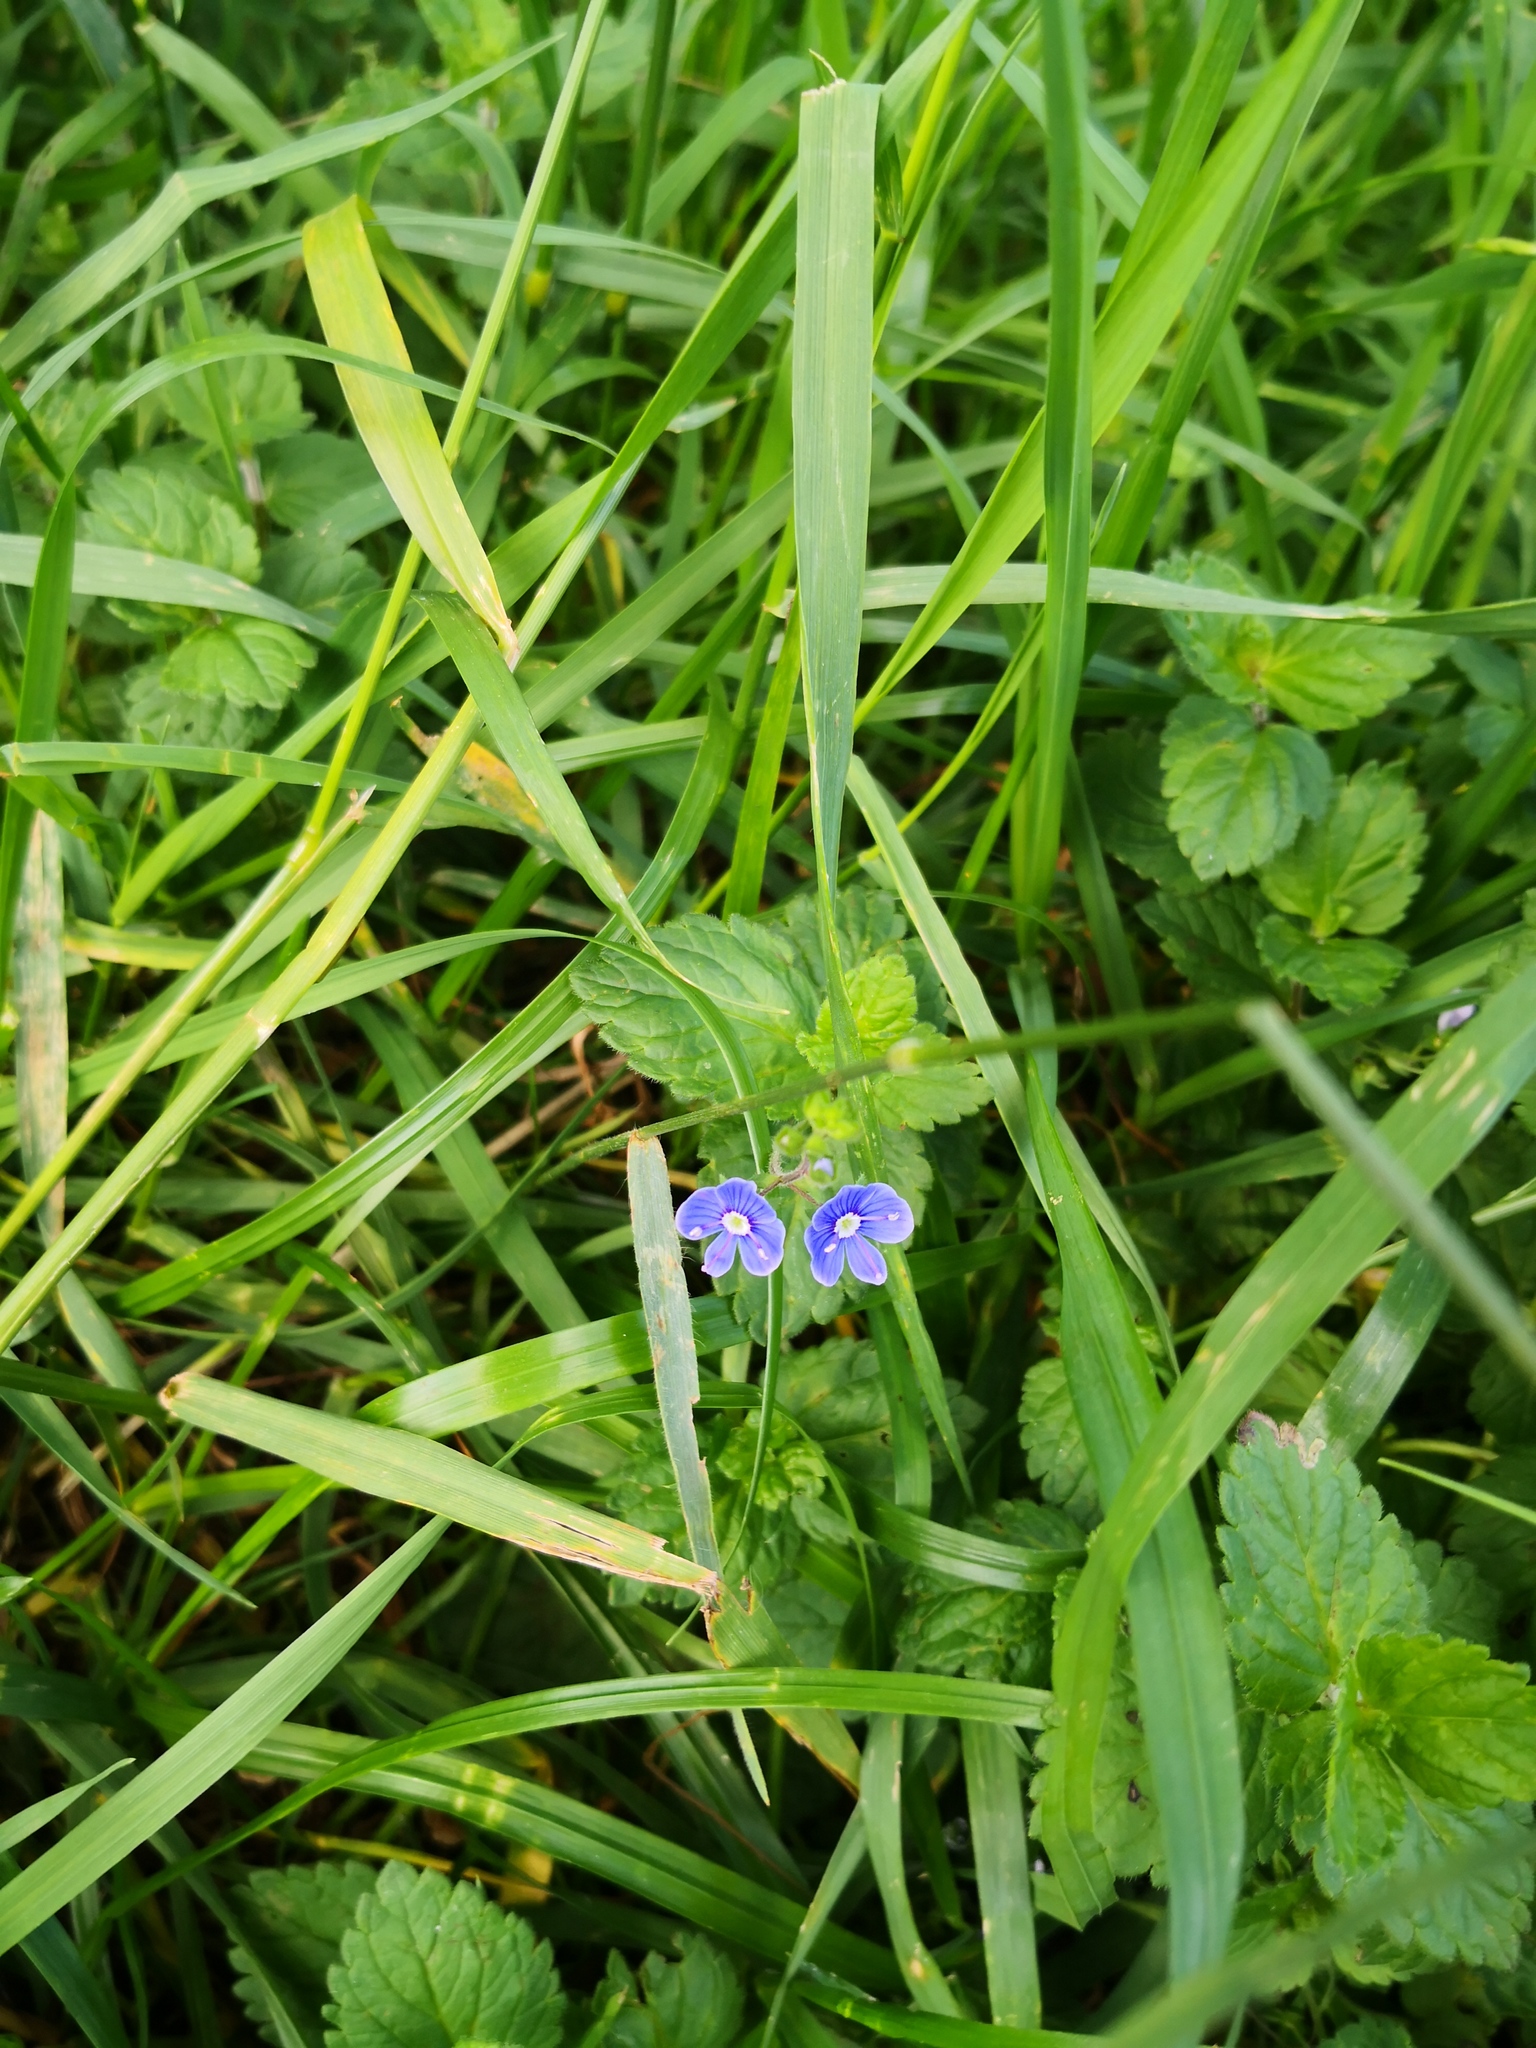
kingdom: Plantae
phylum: Tracheophyta
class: Magnoliopsida
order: Lamiales
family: Plantaginaceae
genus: Veronica
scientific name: Veronica chamaedrys
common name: Germander speedwell
